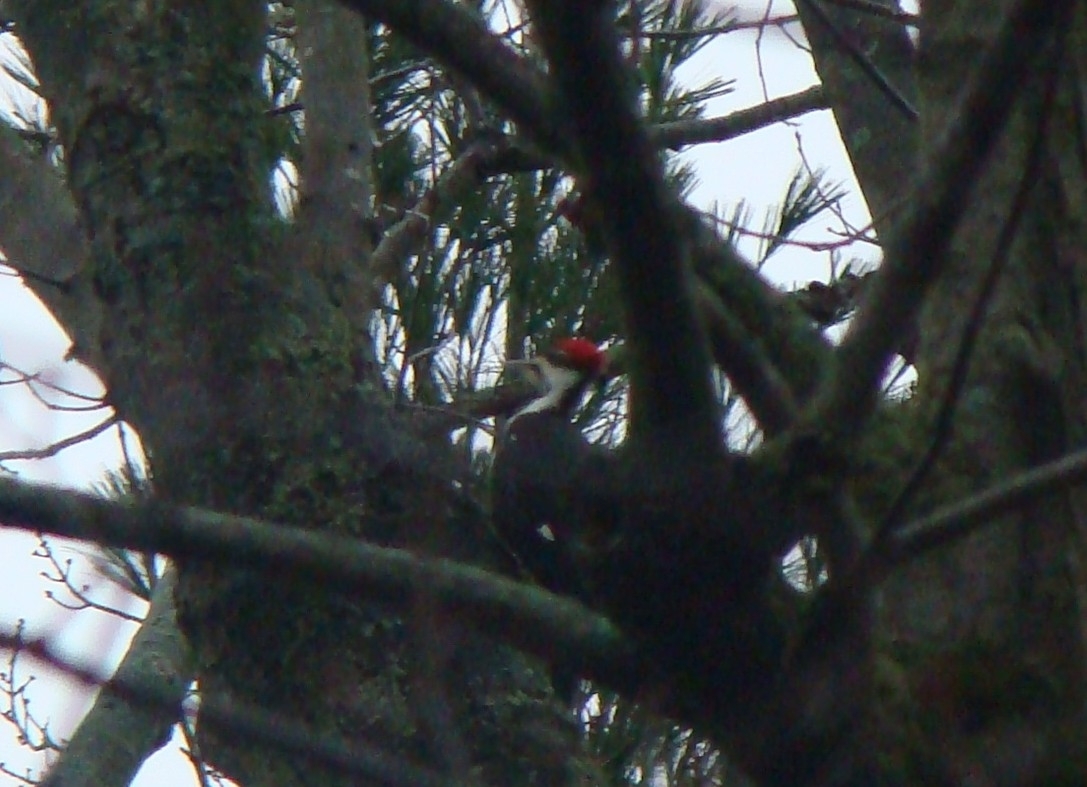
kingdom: Animalia
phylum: Chordata
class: Aves
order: Piciformes
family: Picidae
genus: Dryocopus
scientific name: Dryocopus pileatus
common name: Pileated woodpecker
